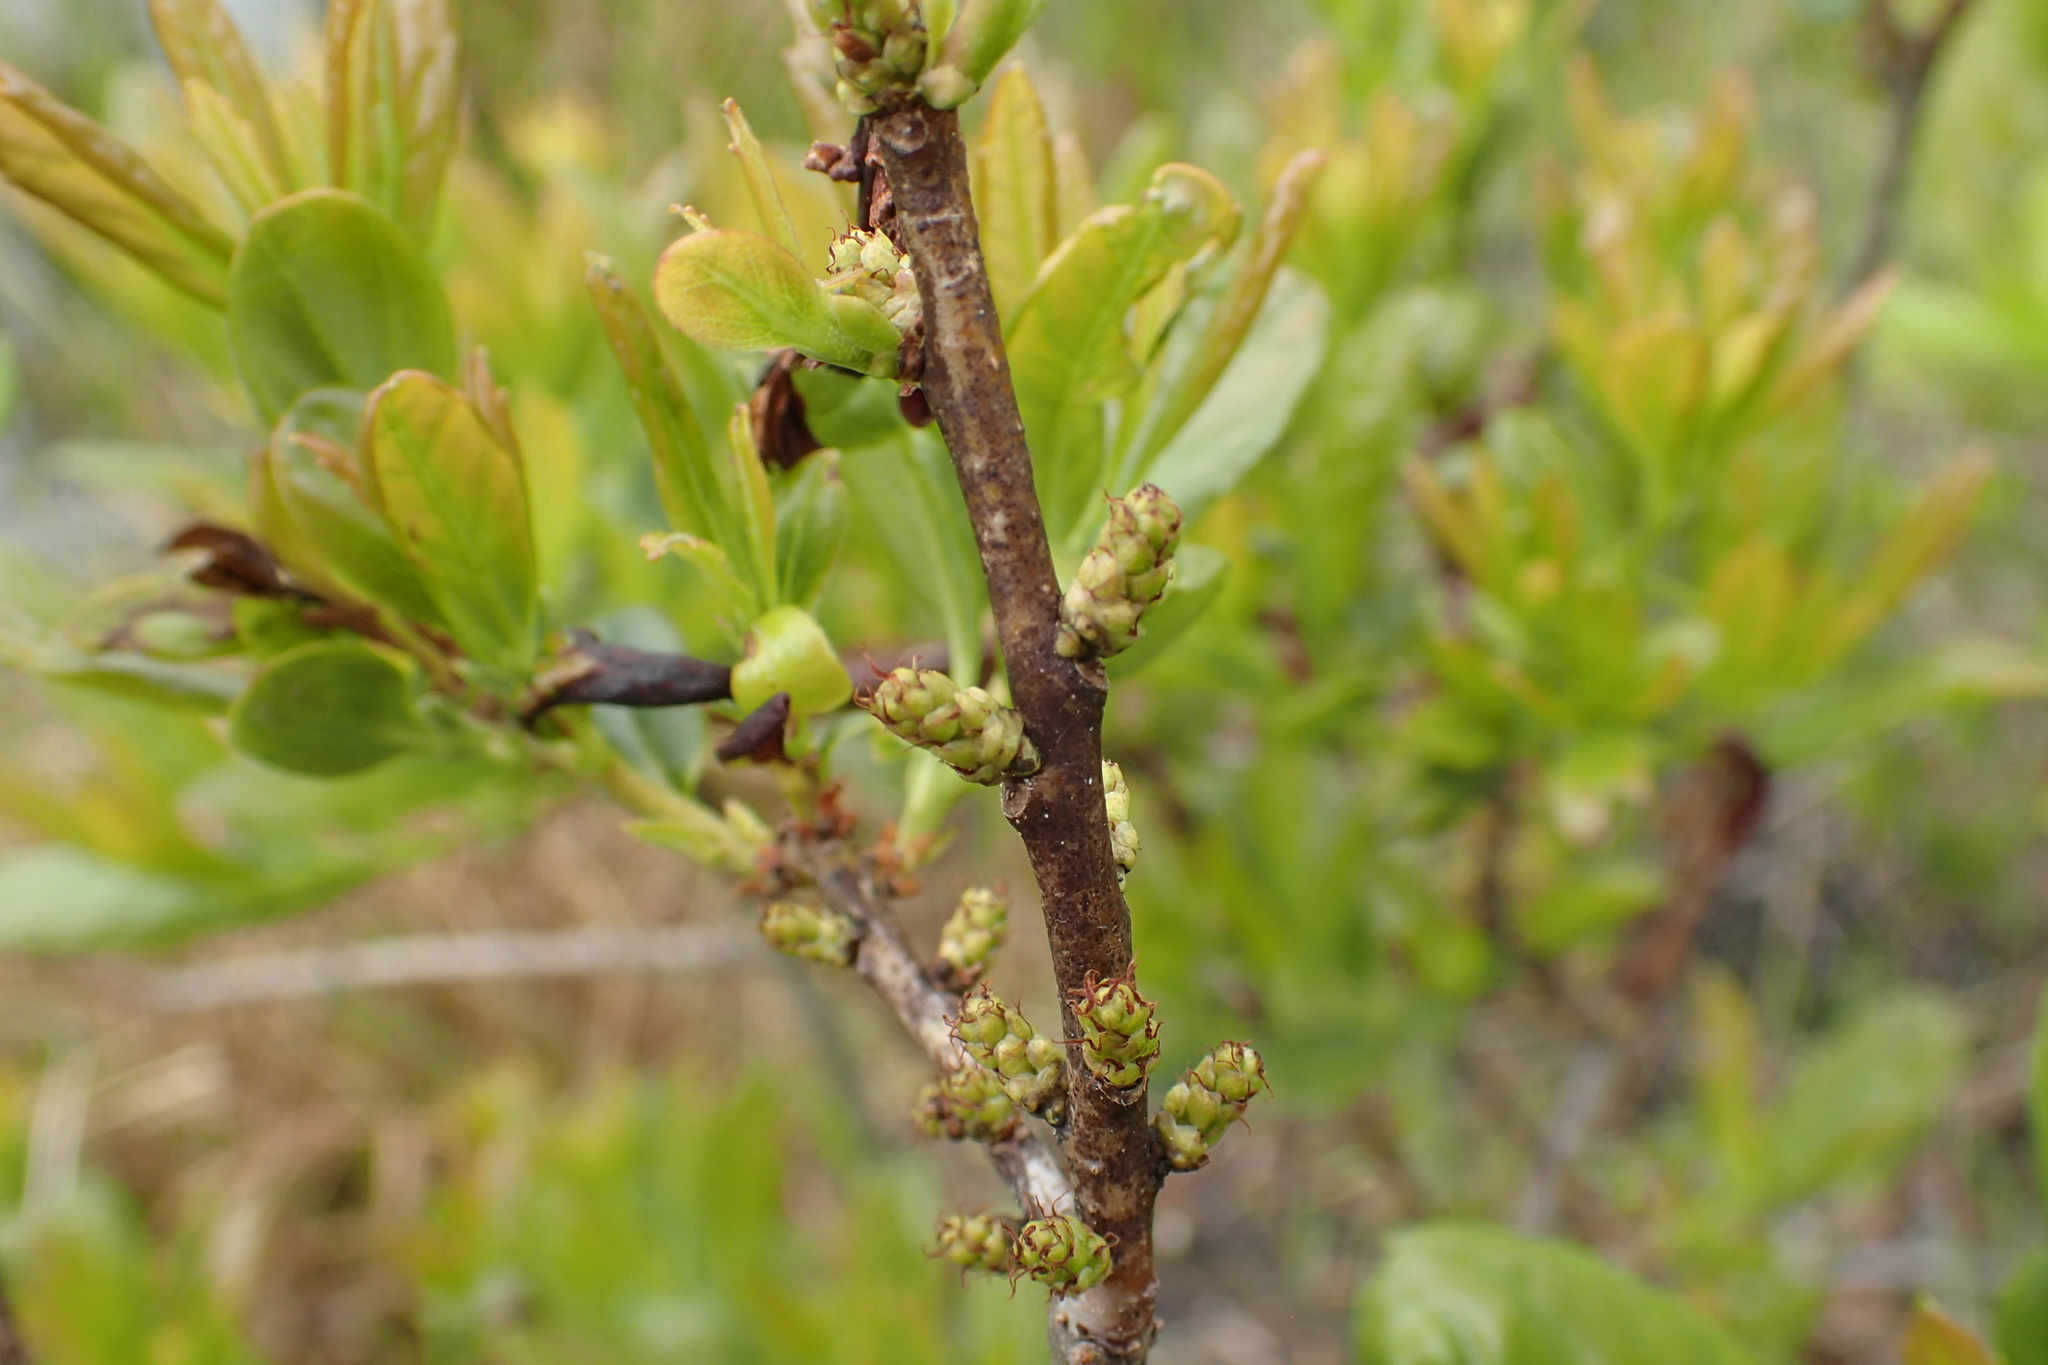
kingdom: Plantae
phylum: Tracheophyta
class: Magnoliopsida
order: Fagales
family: Myricaceae
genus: Morella
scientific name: Morella caroliniensis
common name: Evergreen bayberry
